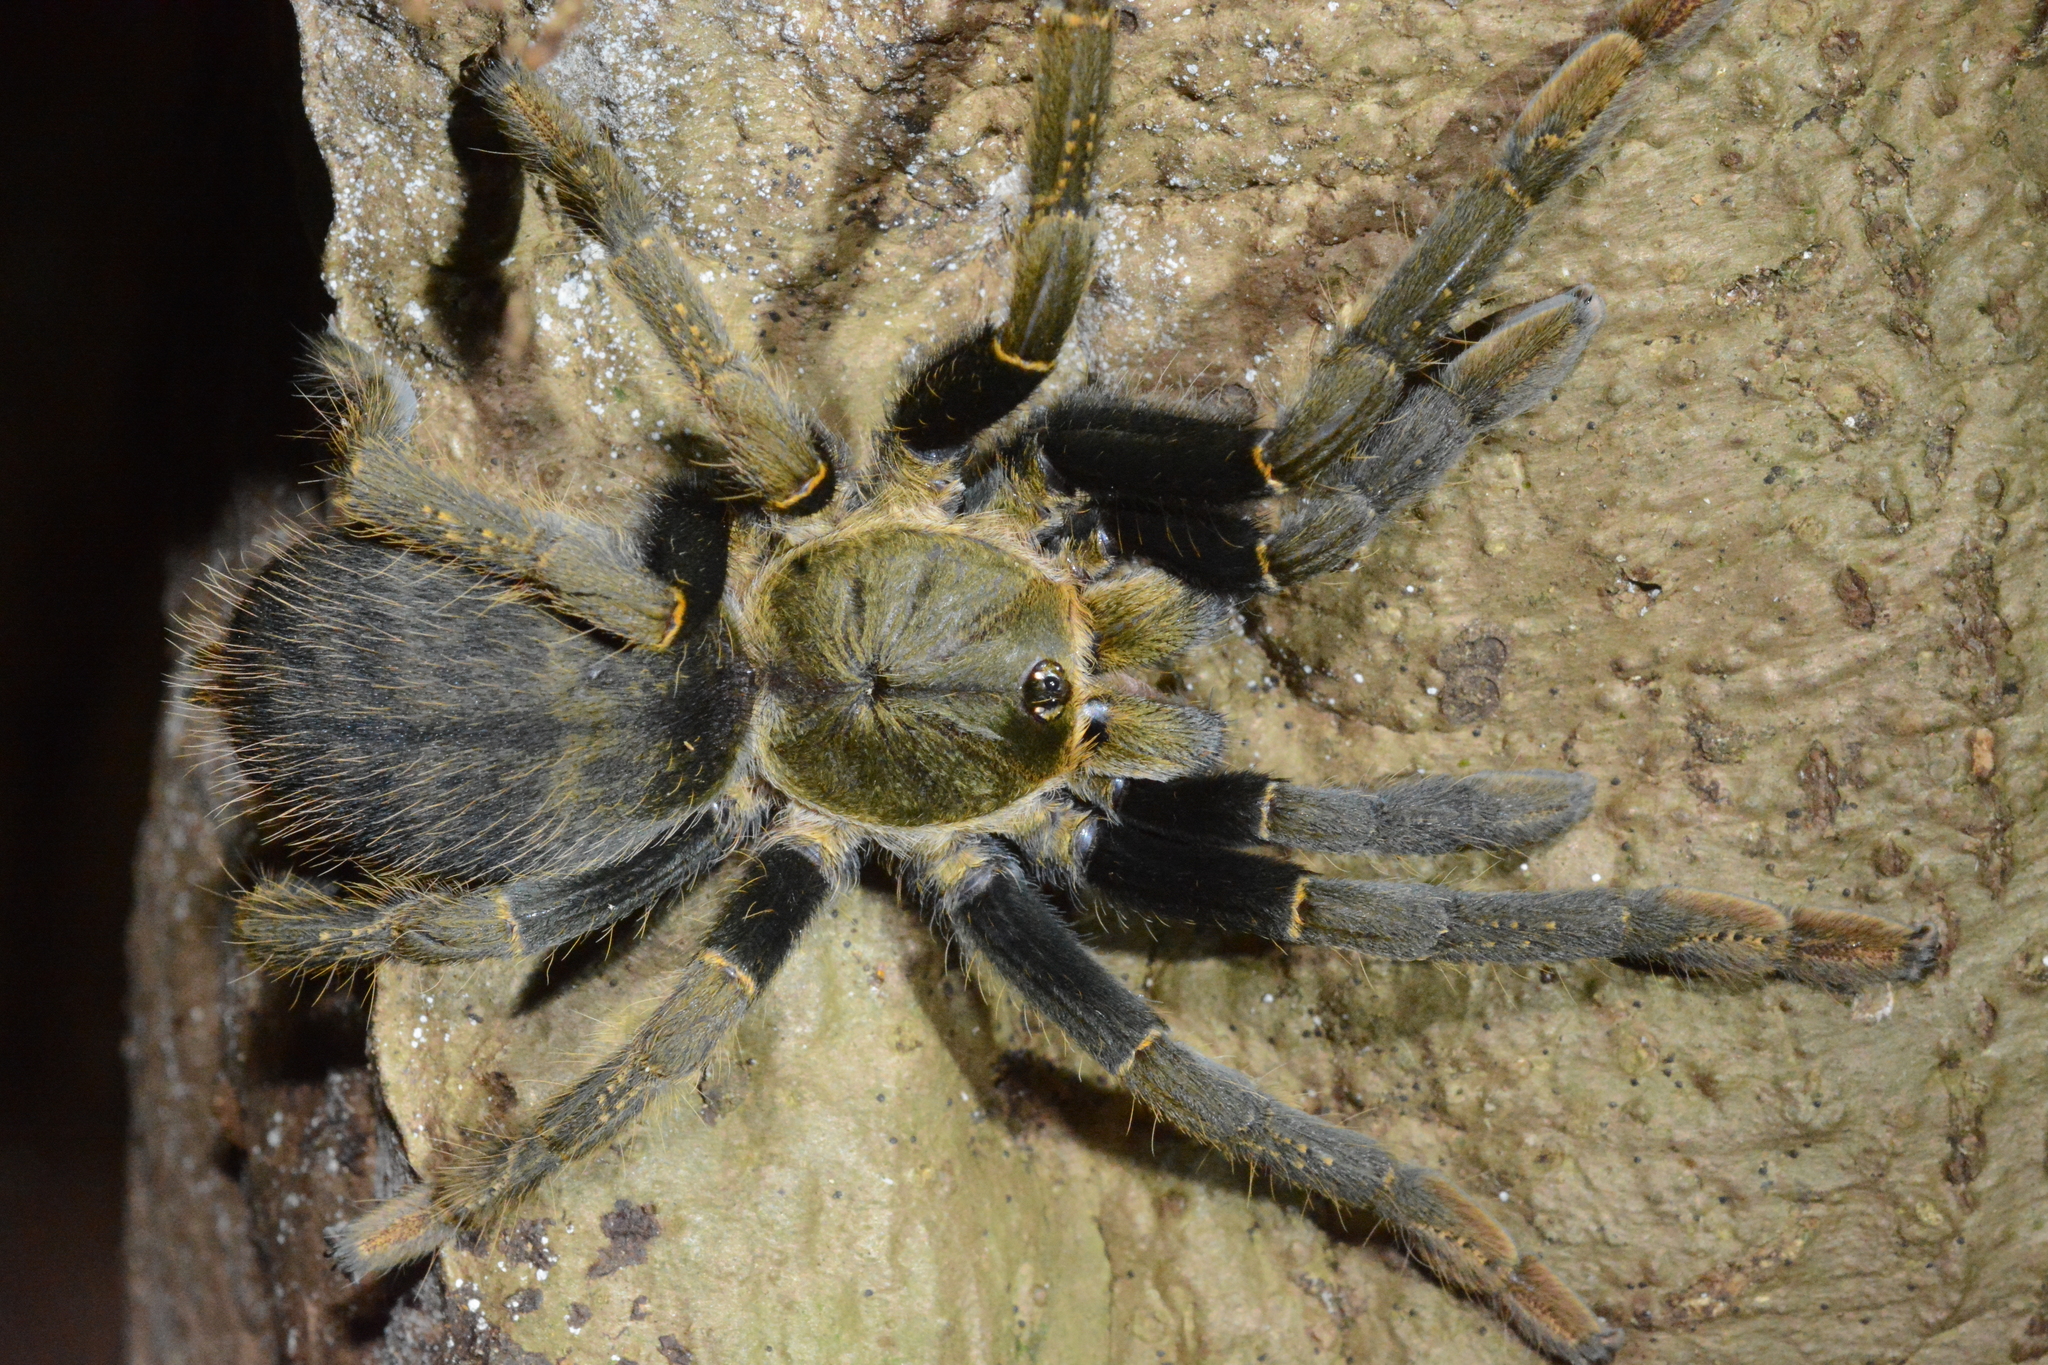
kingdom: Animalia
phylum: Arthropoda
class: Arachnida
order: Araneae
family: Theraphosidae
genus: Encyocratella
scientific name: Encyocratella olivacea
